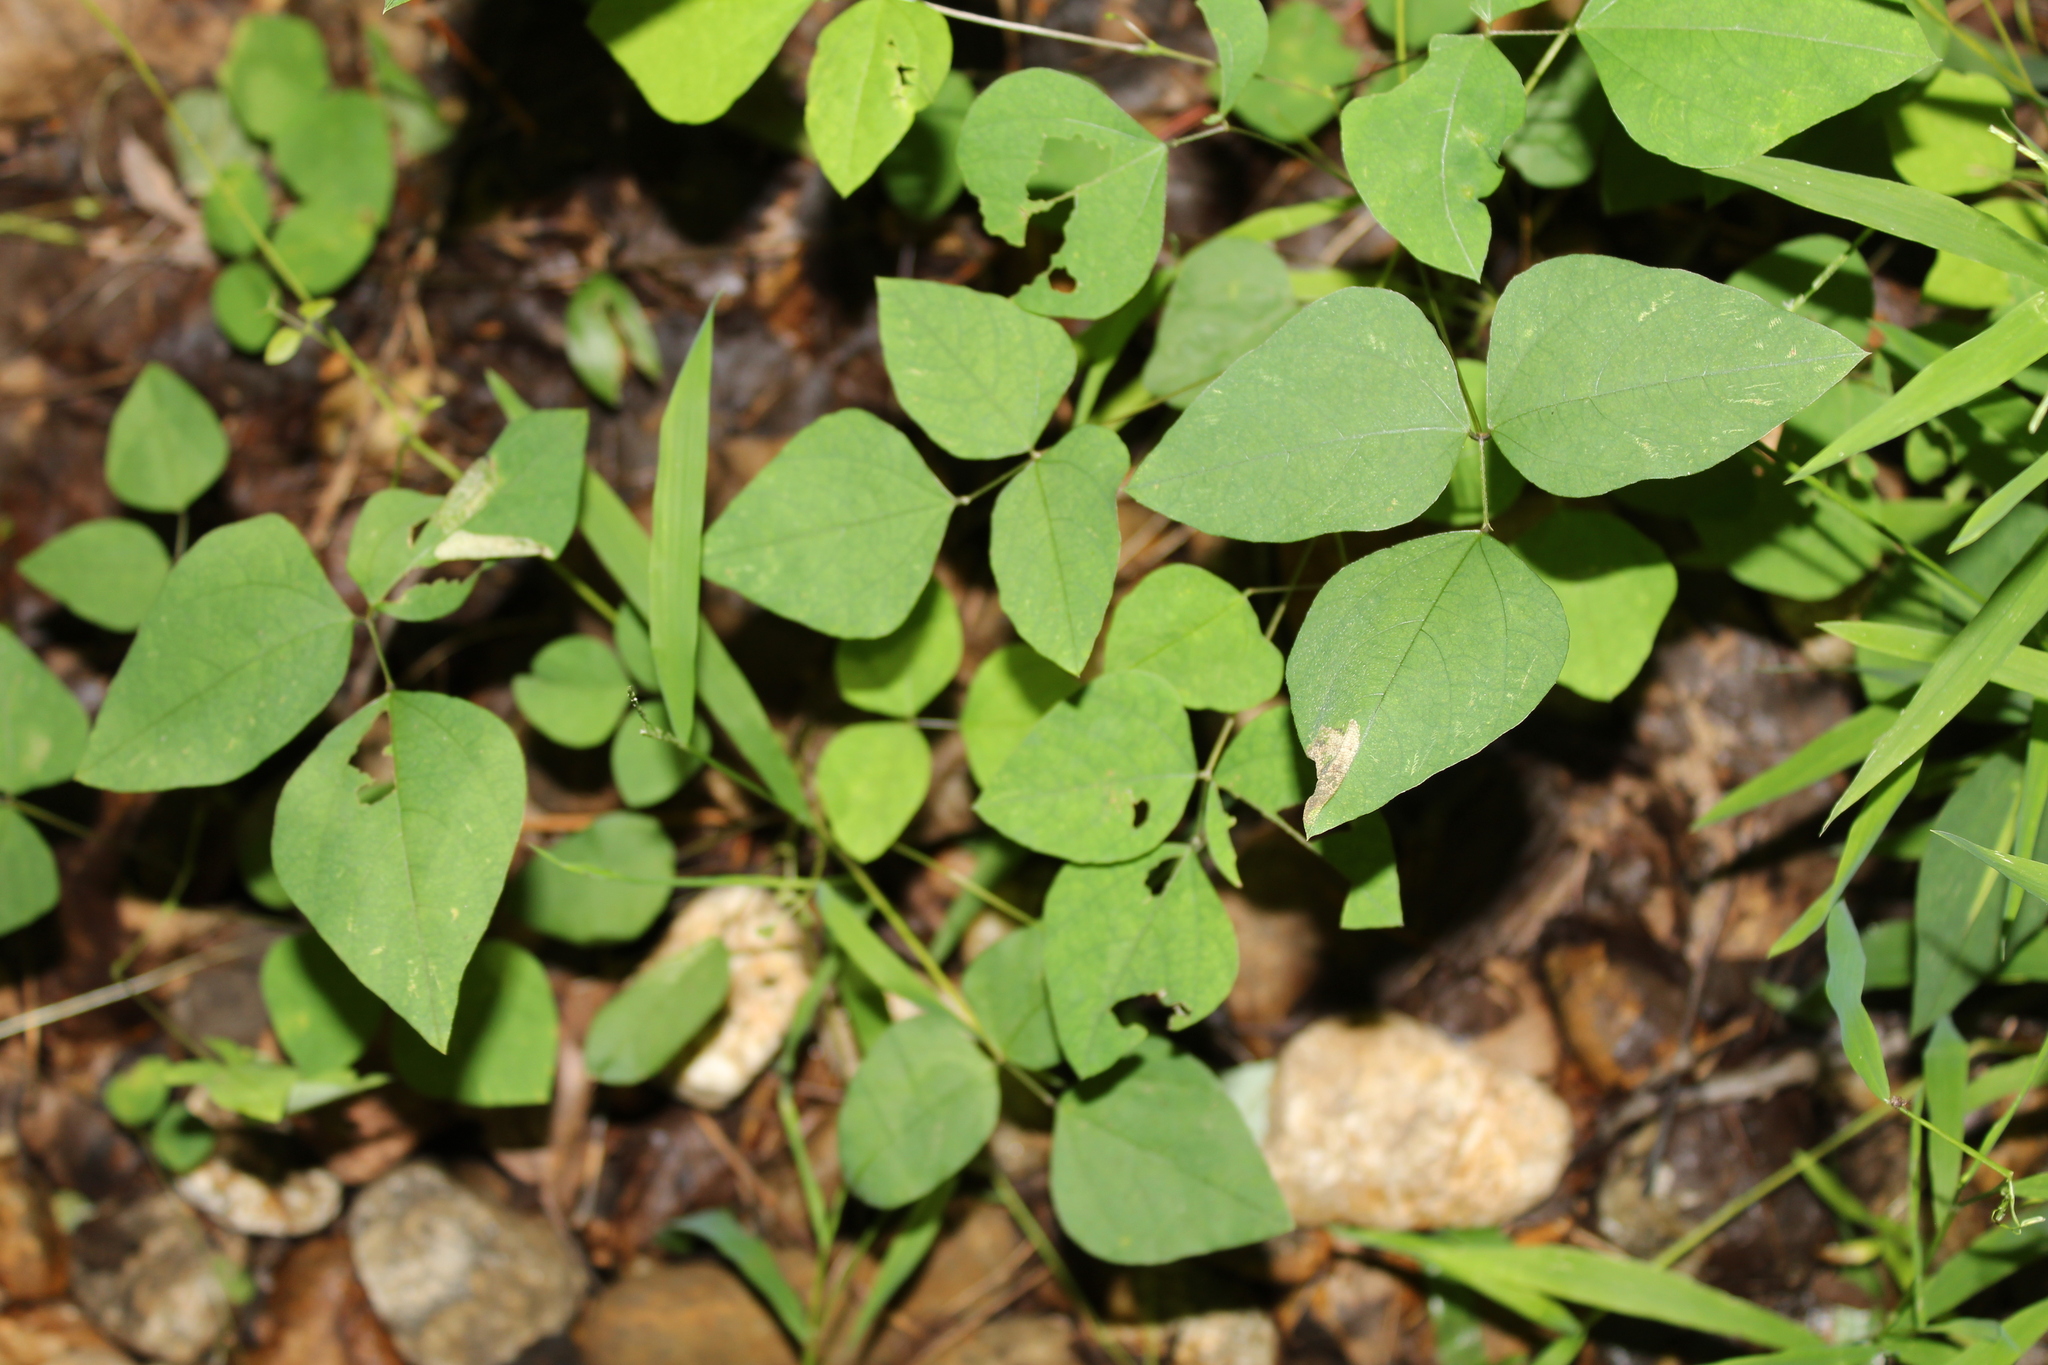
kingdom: Animalia
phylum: Arthropoda
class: Insecta
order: Lepidoptera
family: Gracillariidae
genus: Macrosaccus
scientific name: Macrosaccus morrisella
